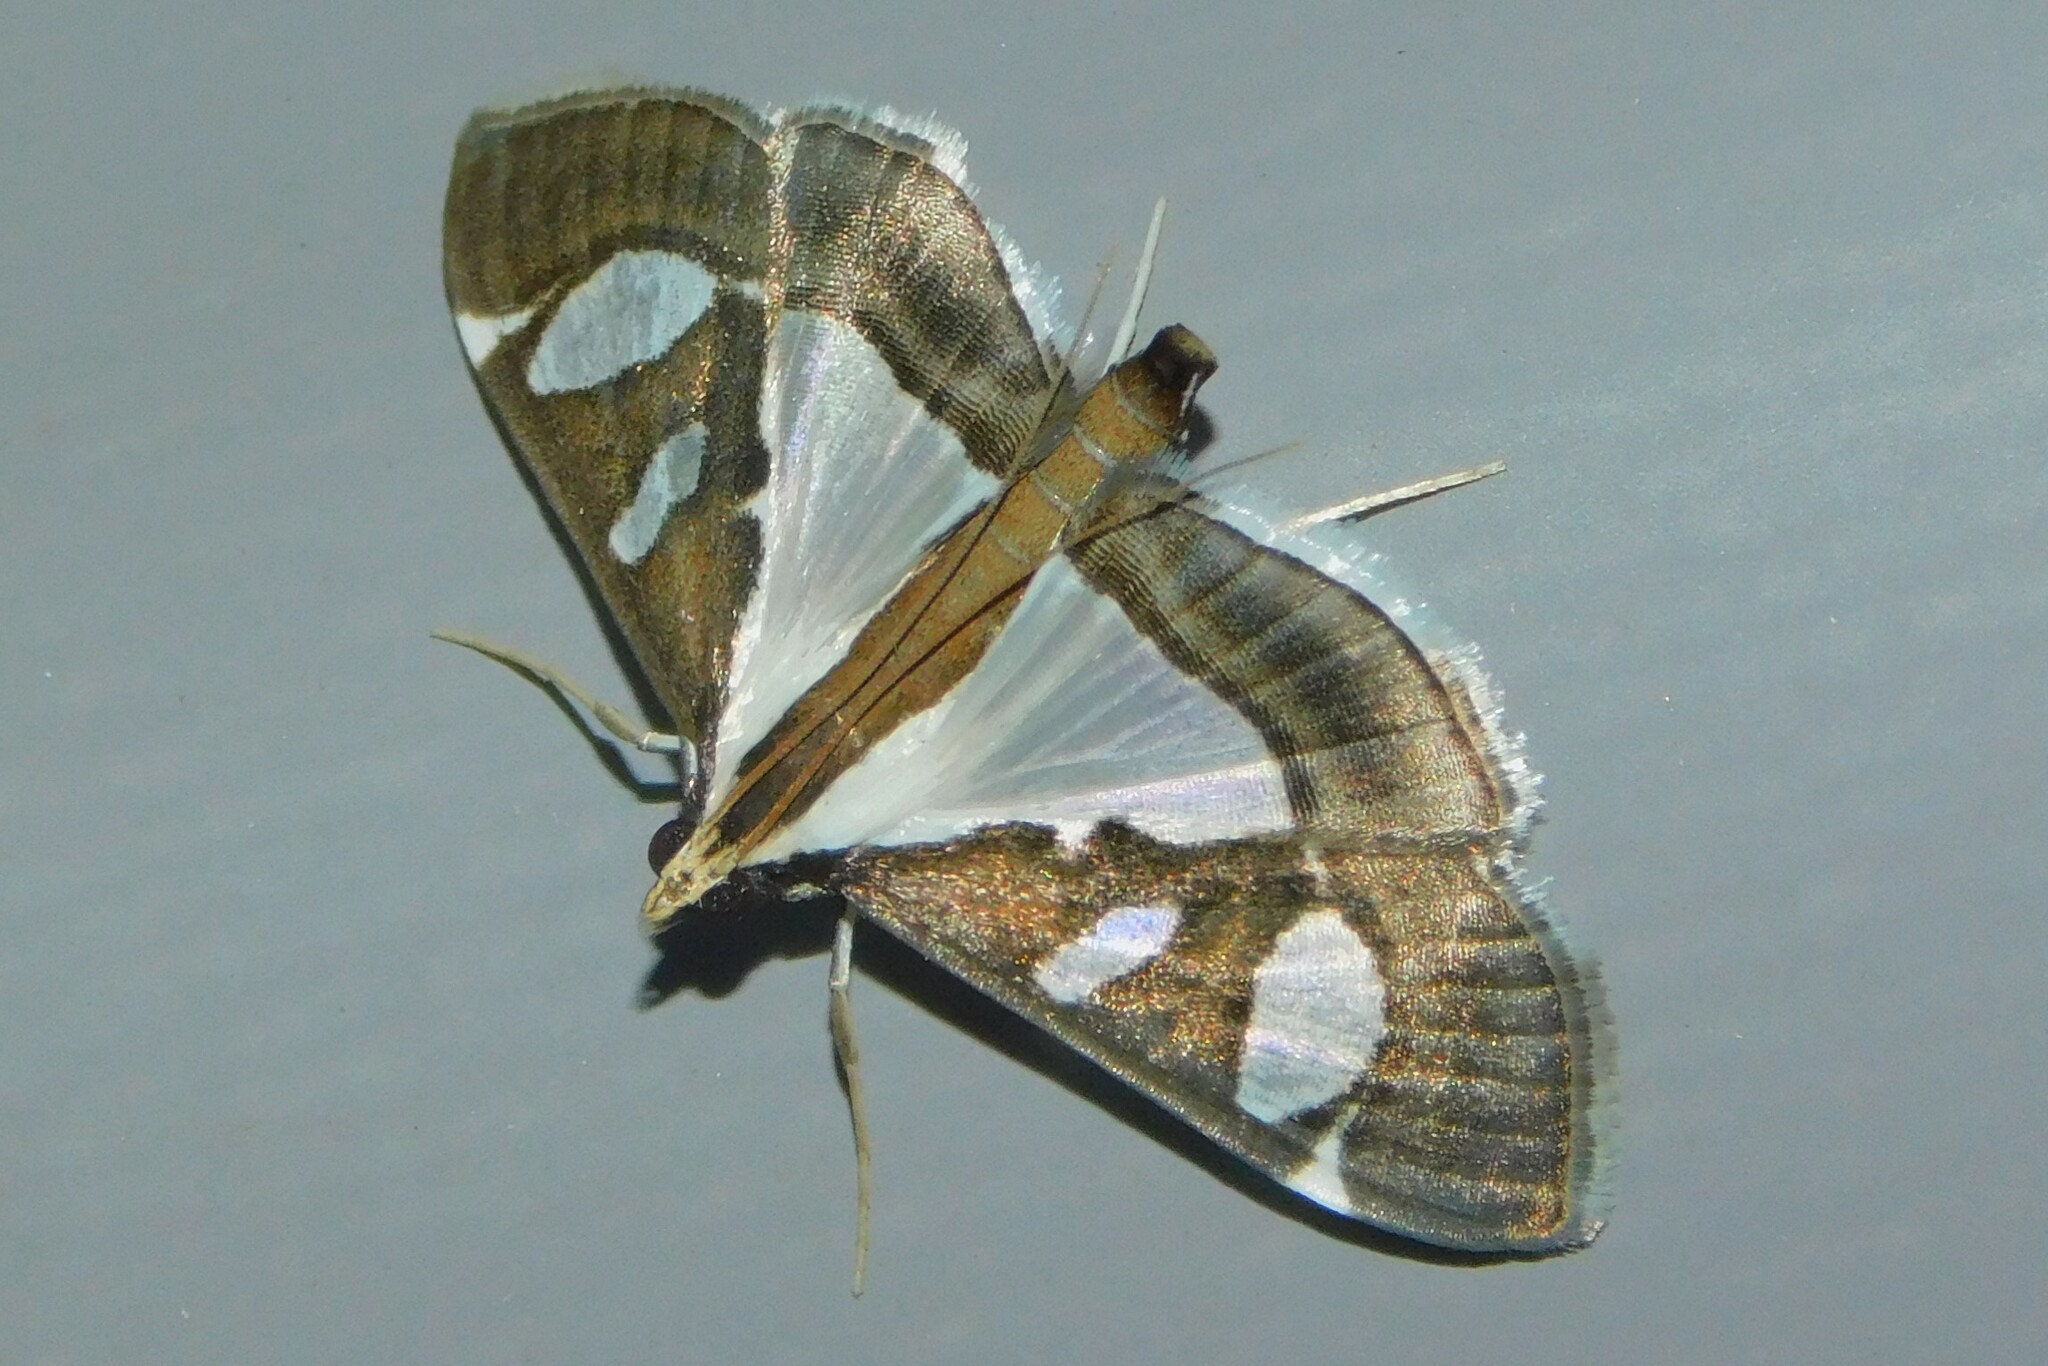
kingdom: Animalia
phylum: Arthropoda
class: Insecta
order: Lepidoptera
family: Crambidae
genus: Glyphodes
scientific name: Glyphodes bicolor
